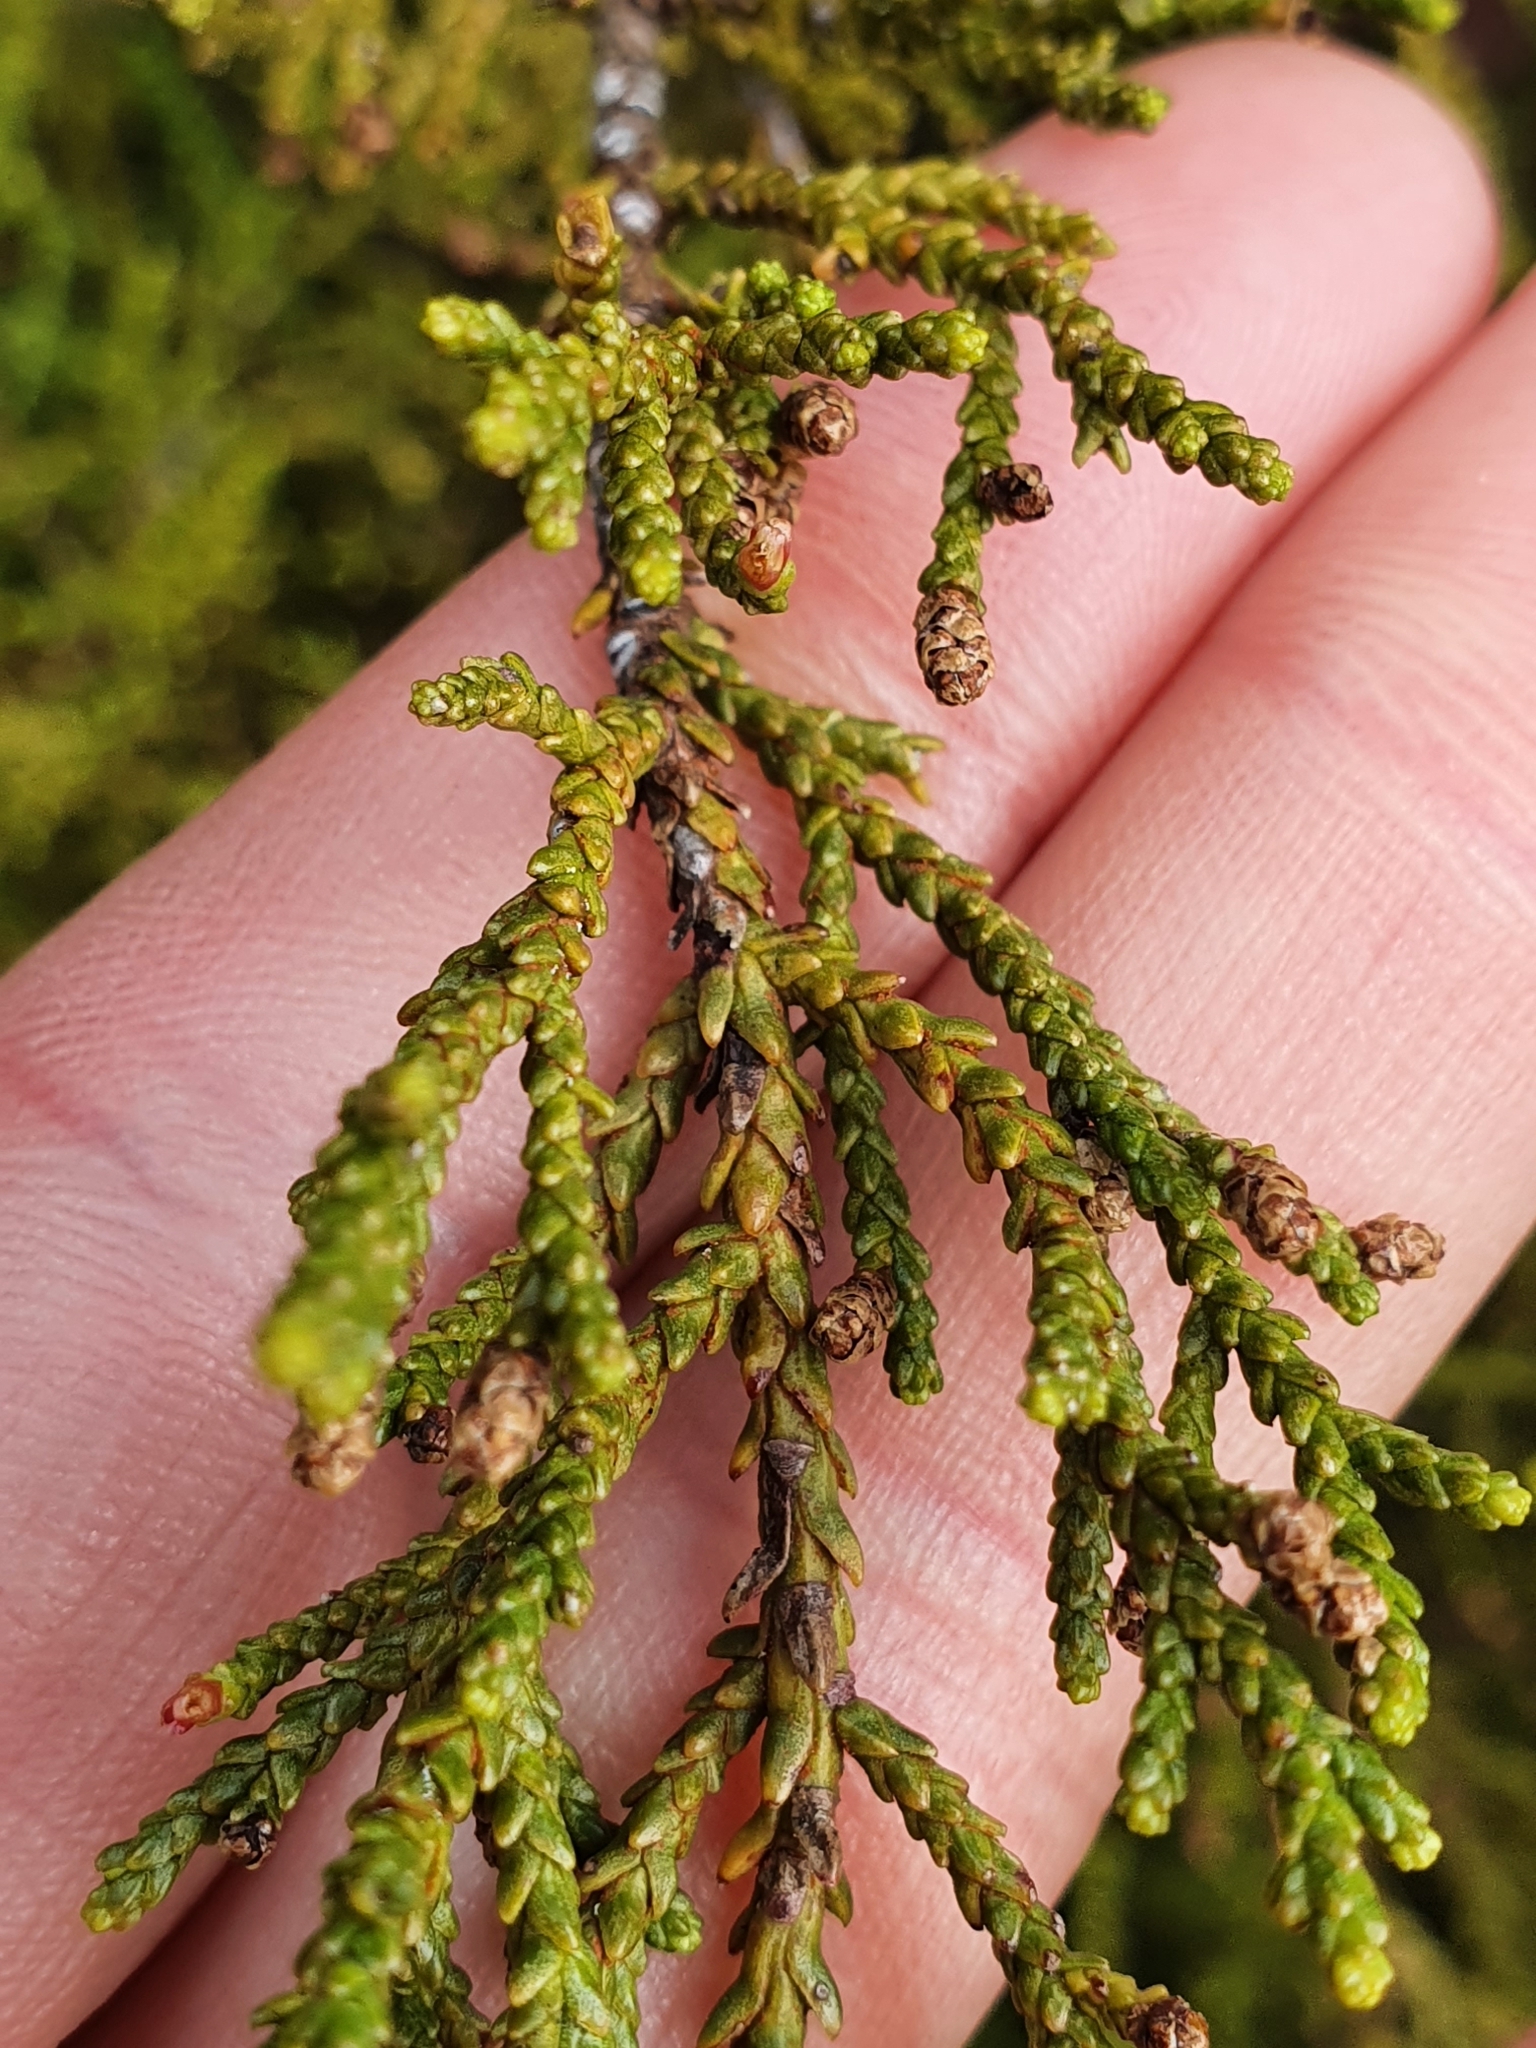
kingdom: Plantae
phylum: Tracheophyta
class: Pinopsida
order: Pinales
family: Podocarpaceae
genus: Lepidothamnus
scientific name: Lepidothamnus laxifolius
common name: Pygmy pine
